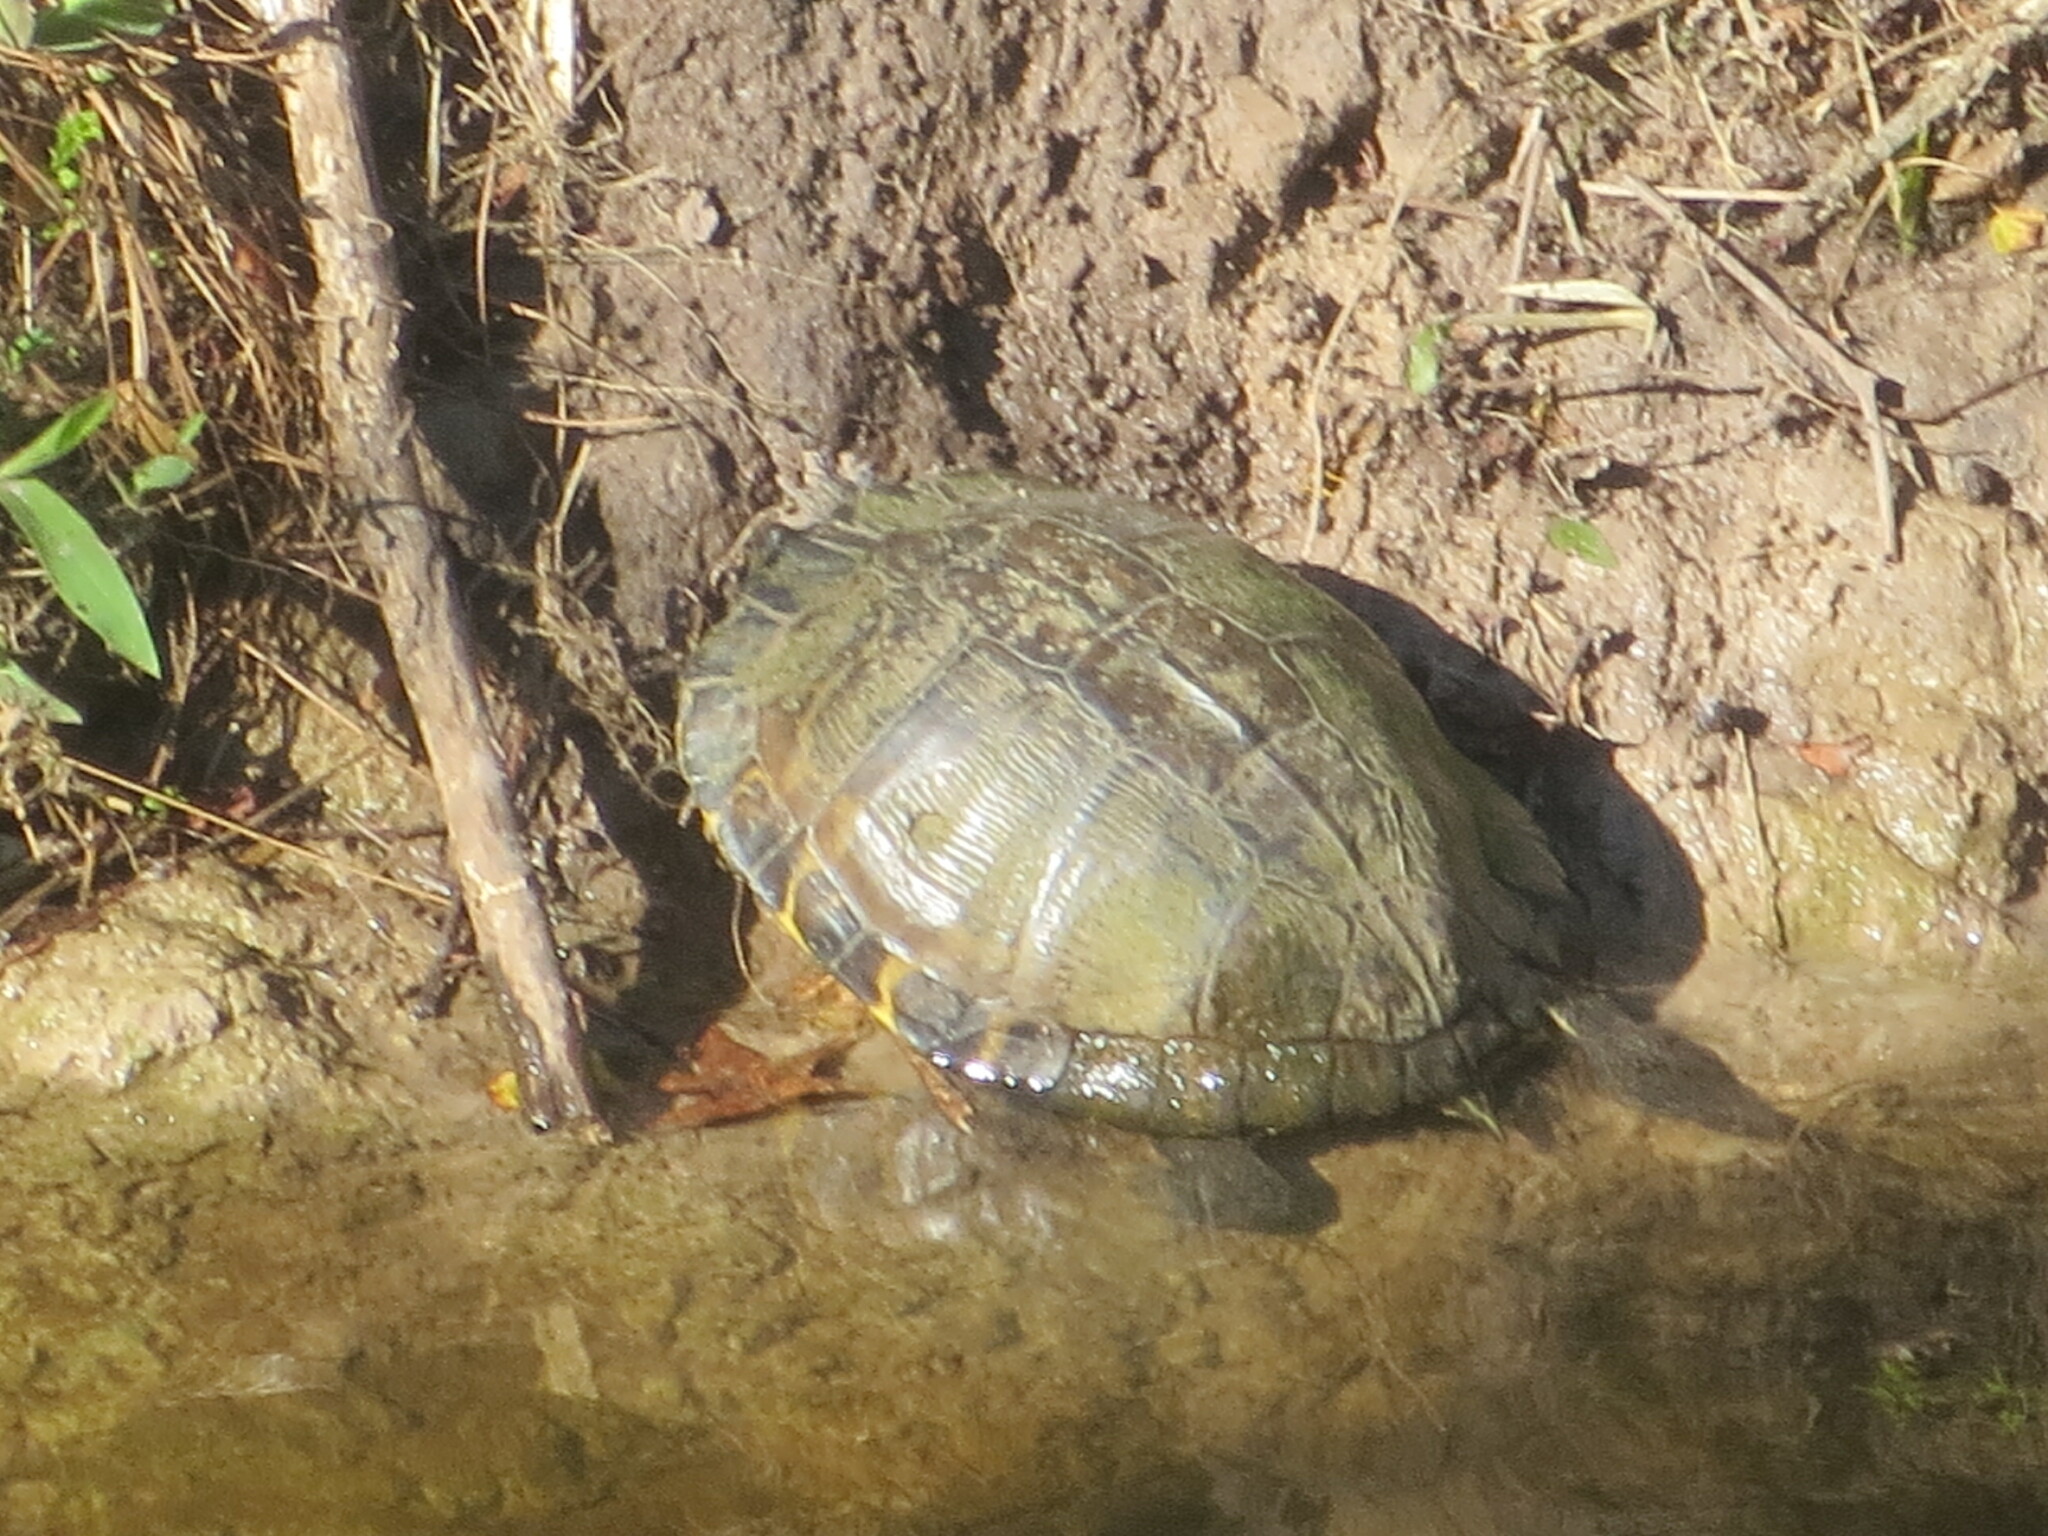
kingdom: Animalia
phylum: Chordata
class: Testudines
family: Emydidae
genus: Trachemys
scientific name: Trachemys scripta
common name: Slider
